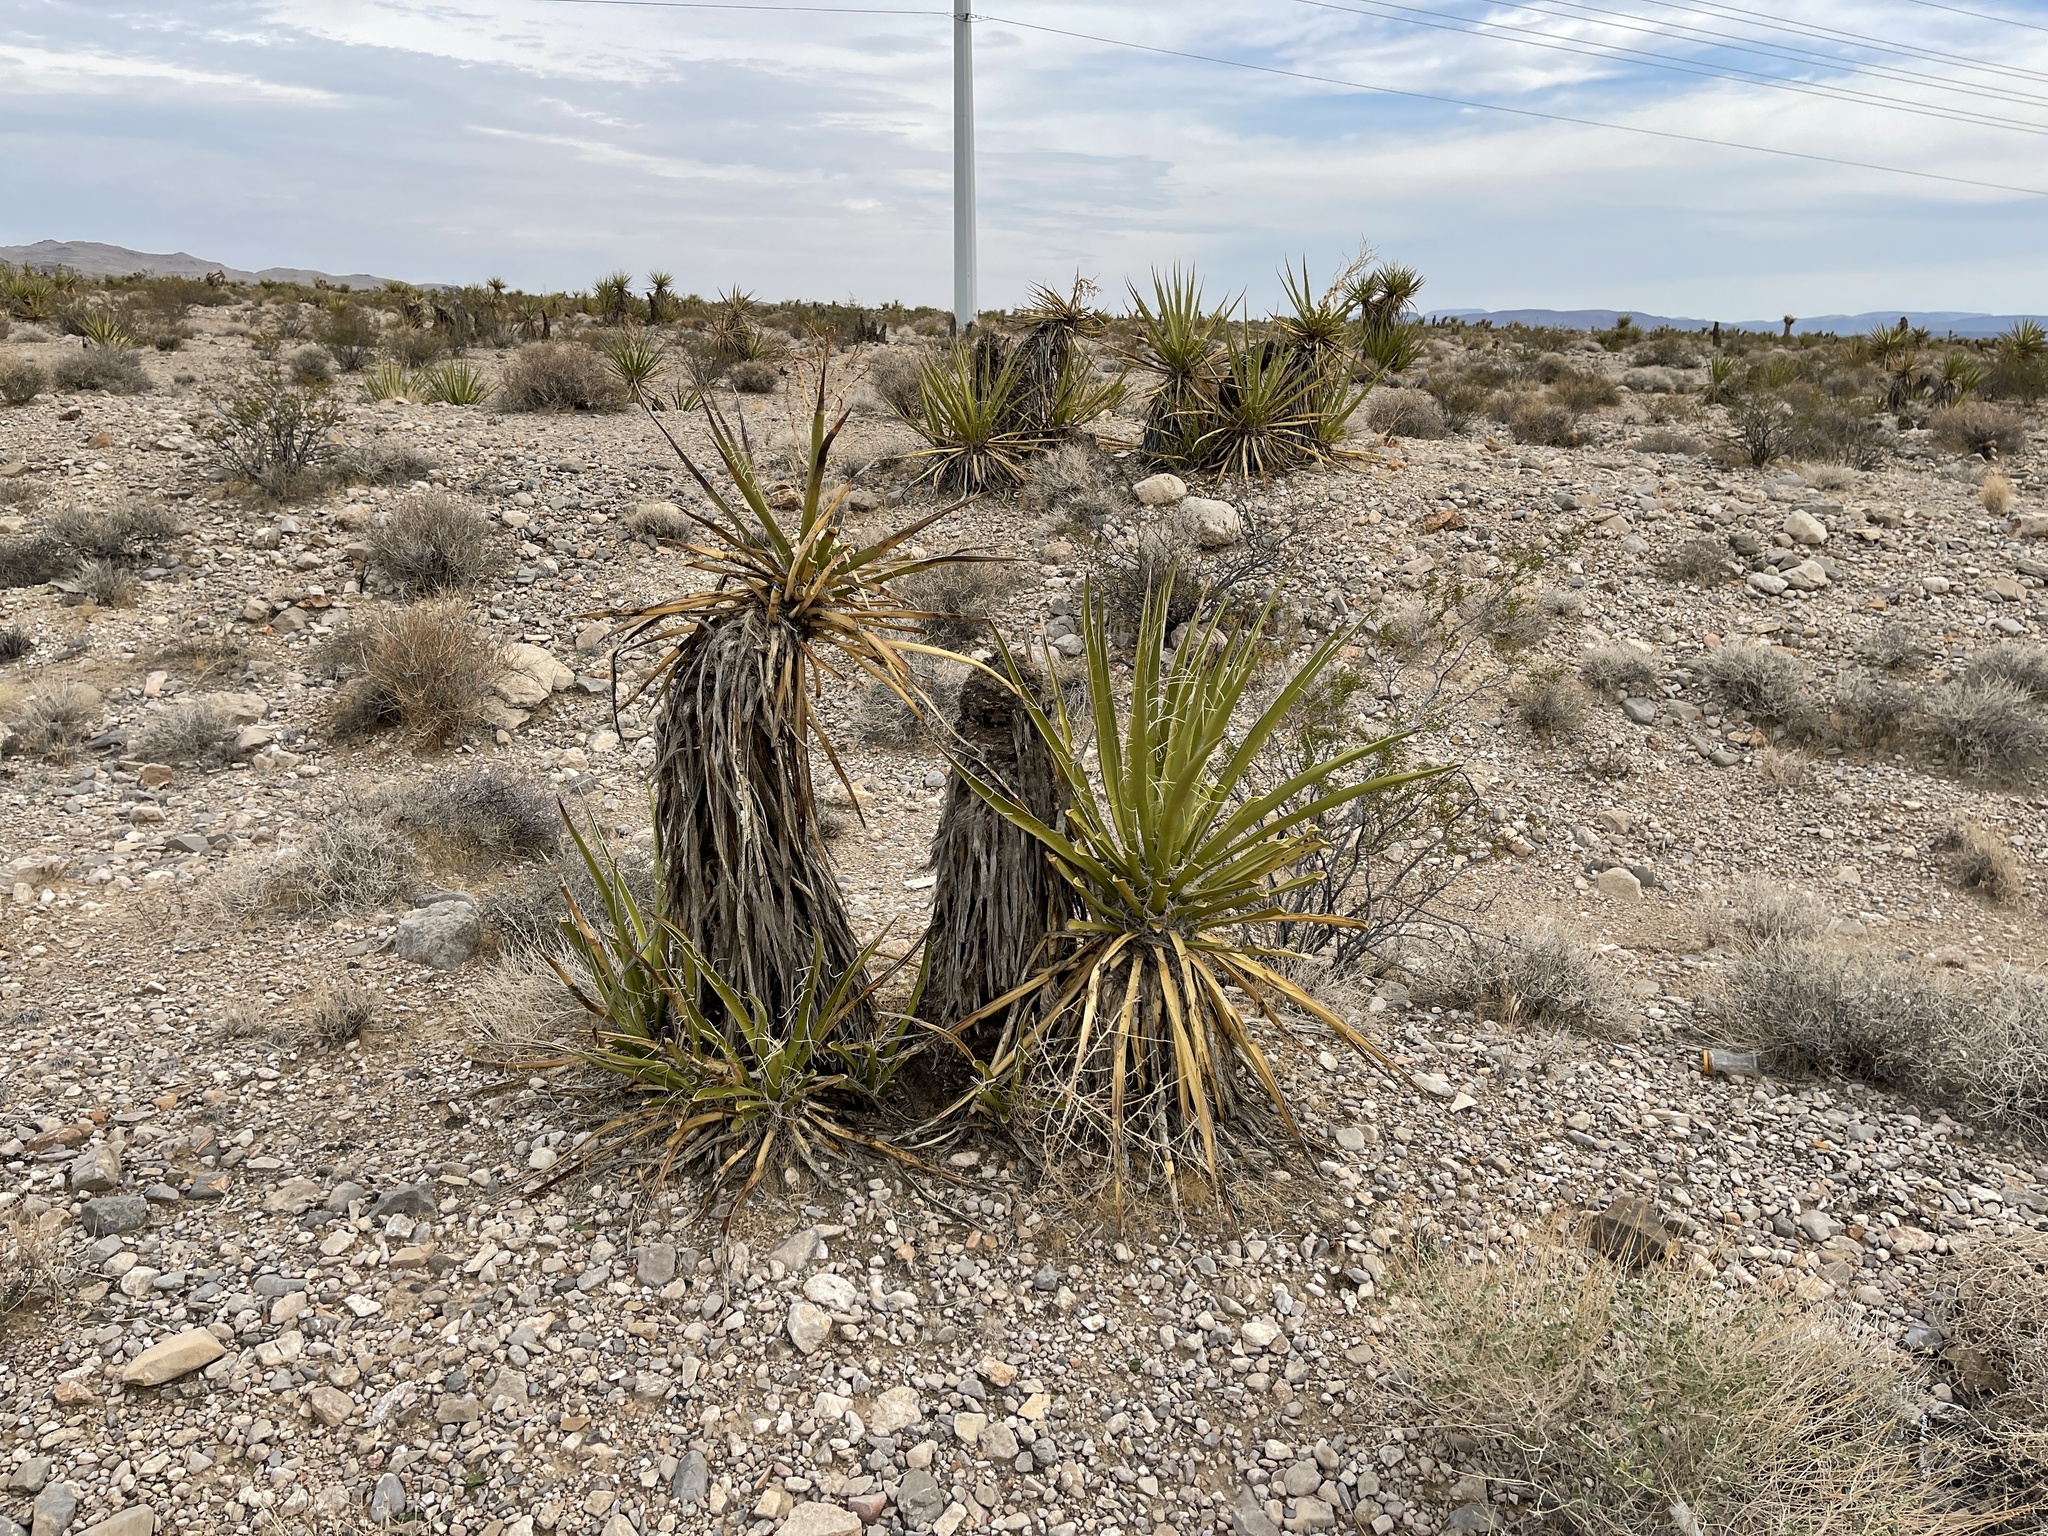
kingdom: Plantae
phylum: Tracheophyta
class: Liliopsida
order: Asparagales
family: Asparagaceae
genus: Yucca
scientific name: Yucca schidigera
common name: Mojave yucca
